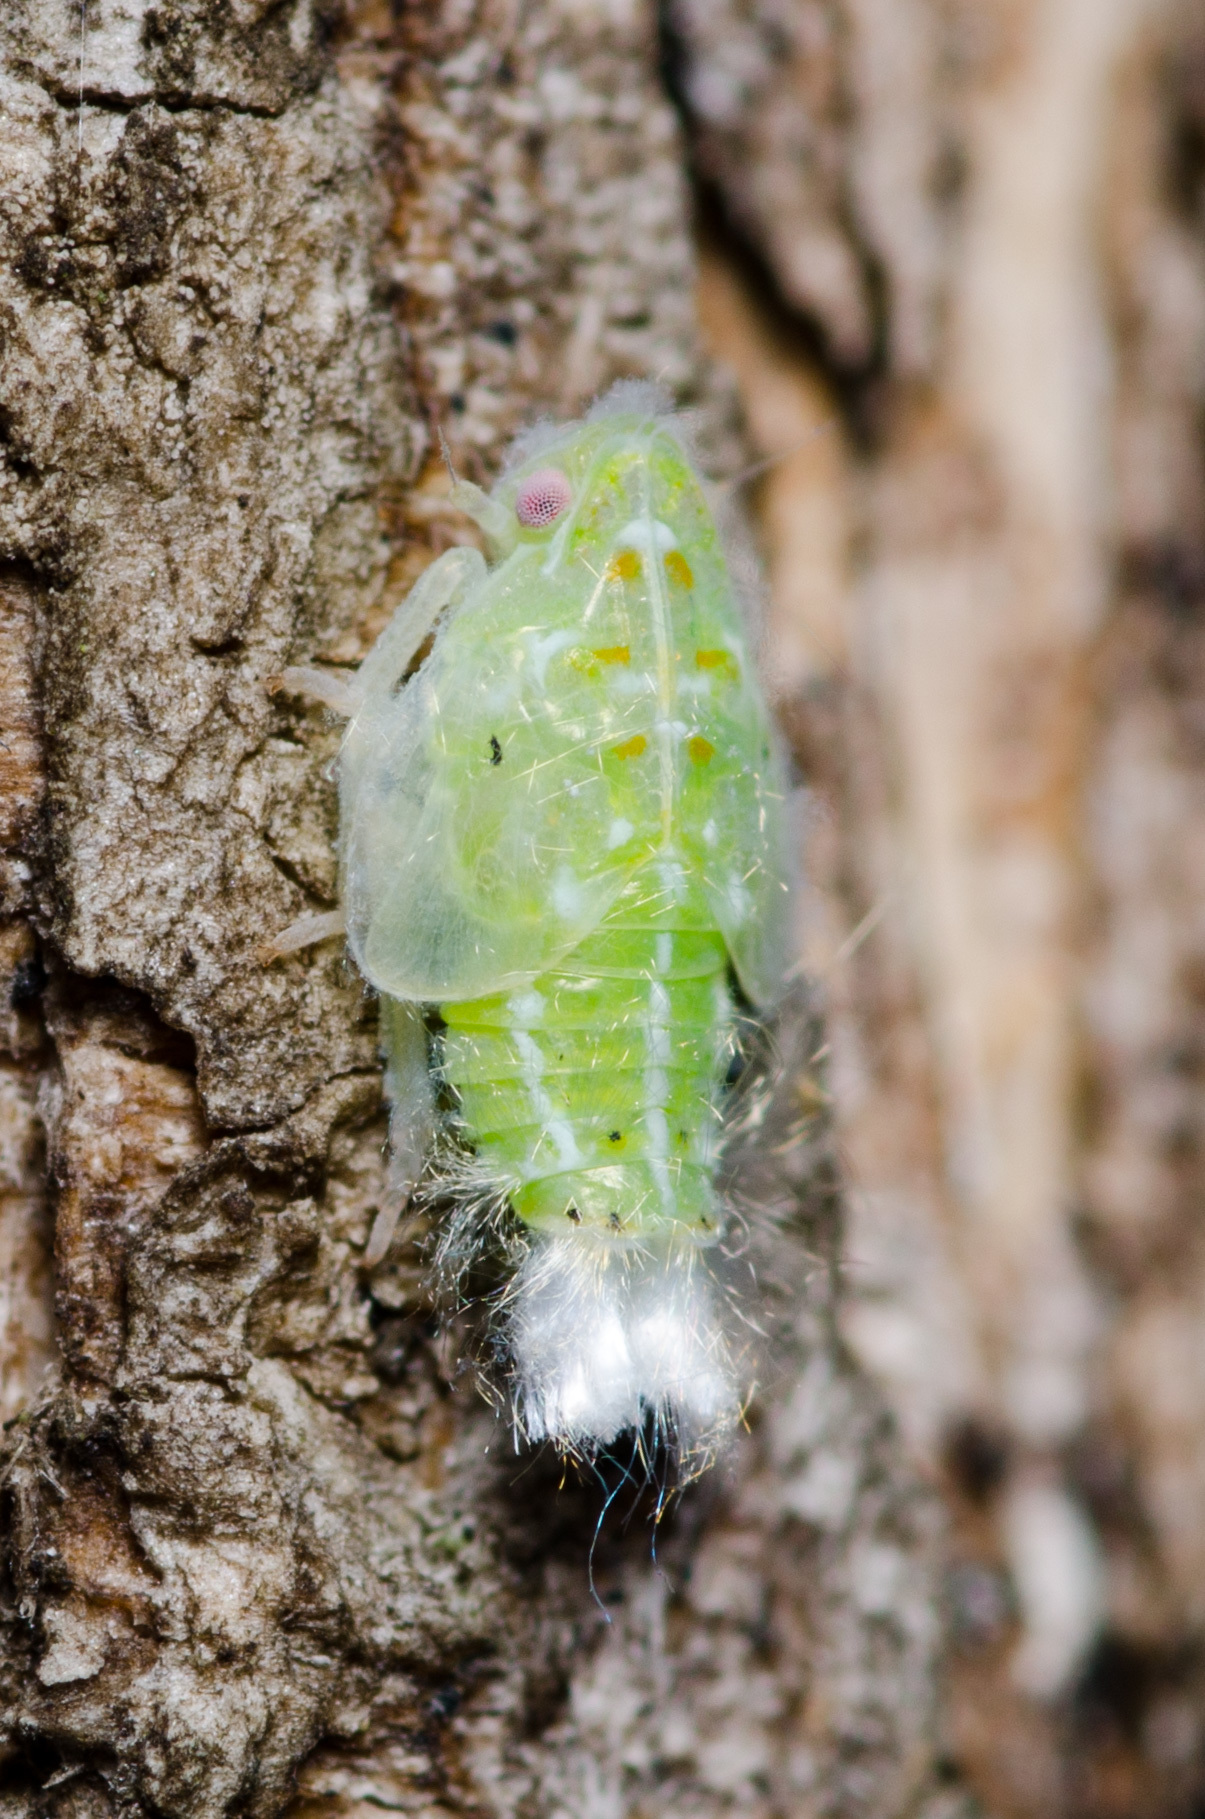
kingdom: Animalia
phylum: Arthropoda
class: Insecta
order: Hemiptera
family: Flatidae
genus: Ormenoides
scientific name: Ormenoides venusta
